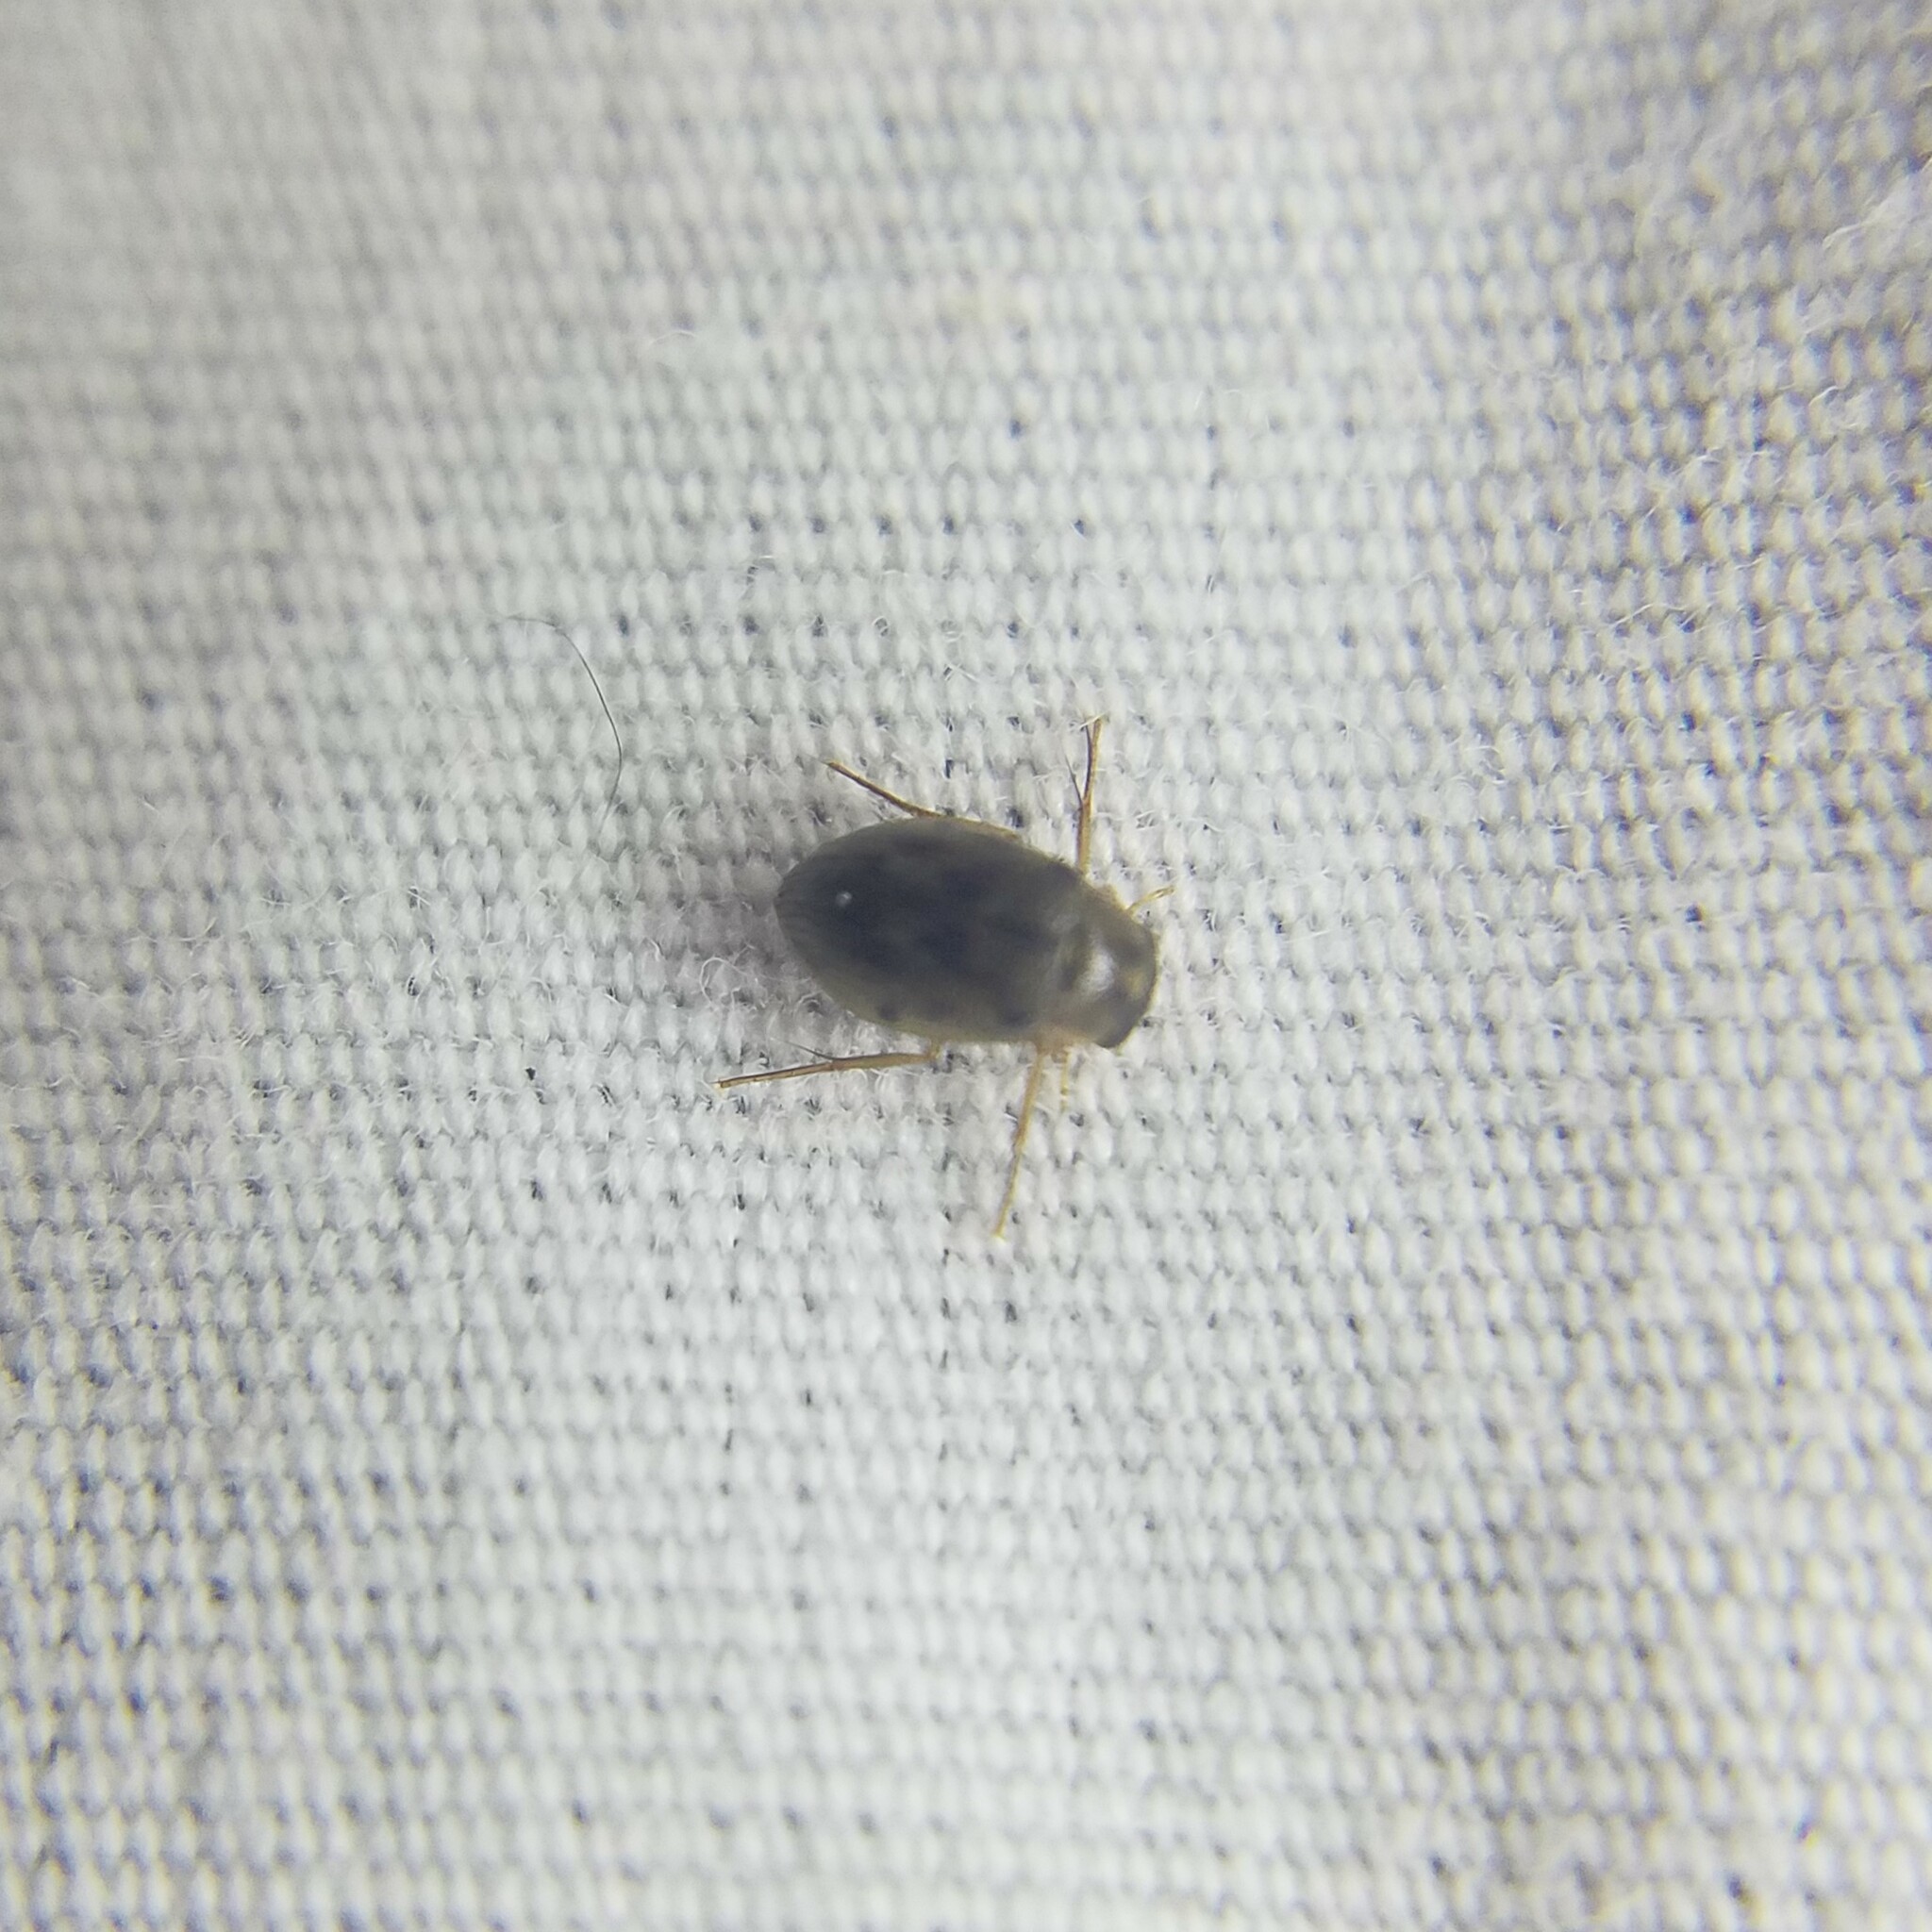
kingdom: Animalia
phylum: Arthropoda
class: Insecta
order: Coleoptera
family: Hydrophilidae
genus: Berosus
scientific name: Berosus
